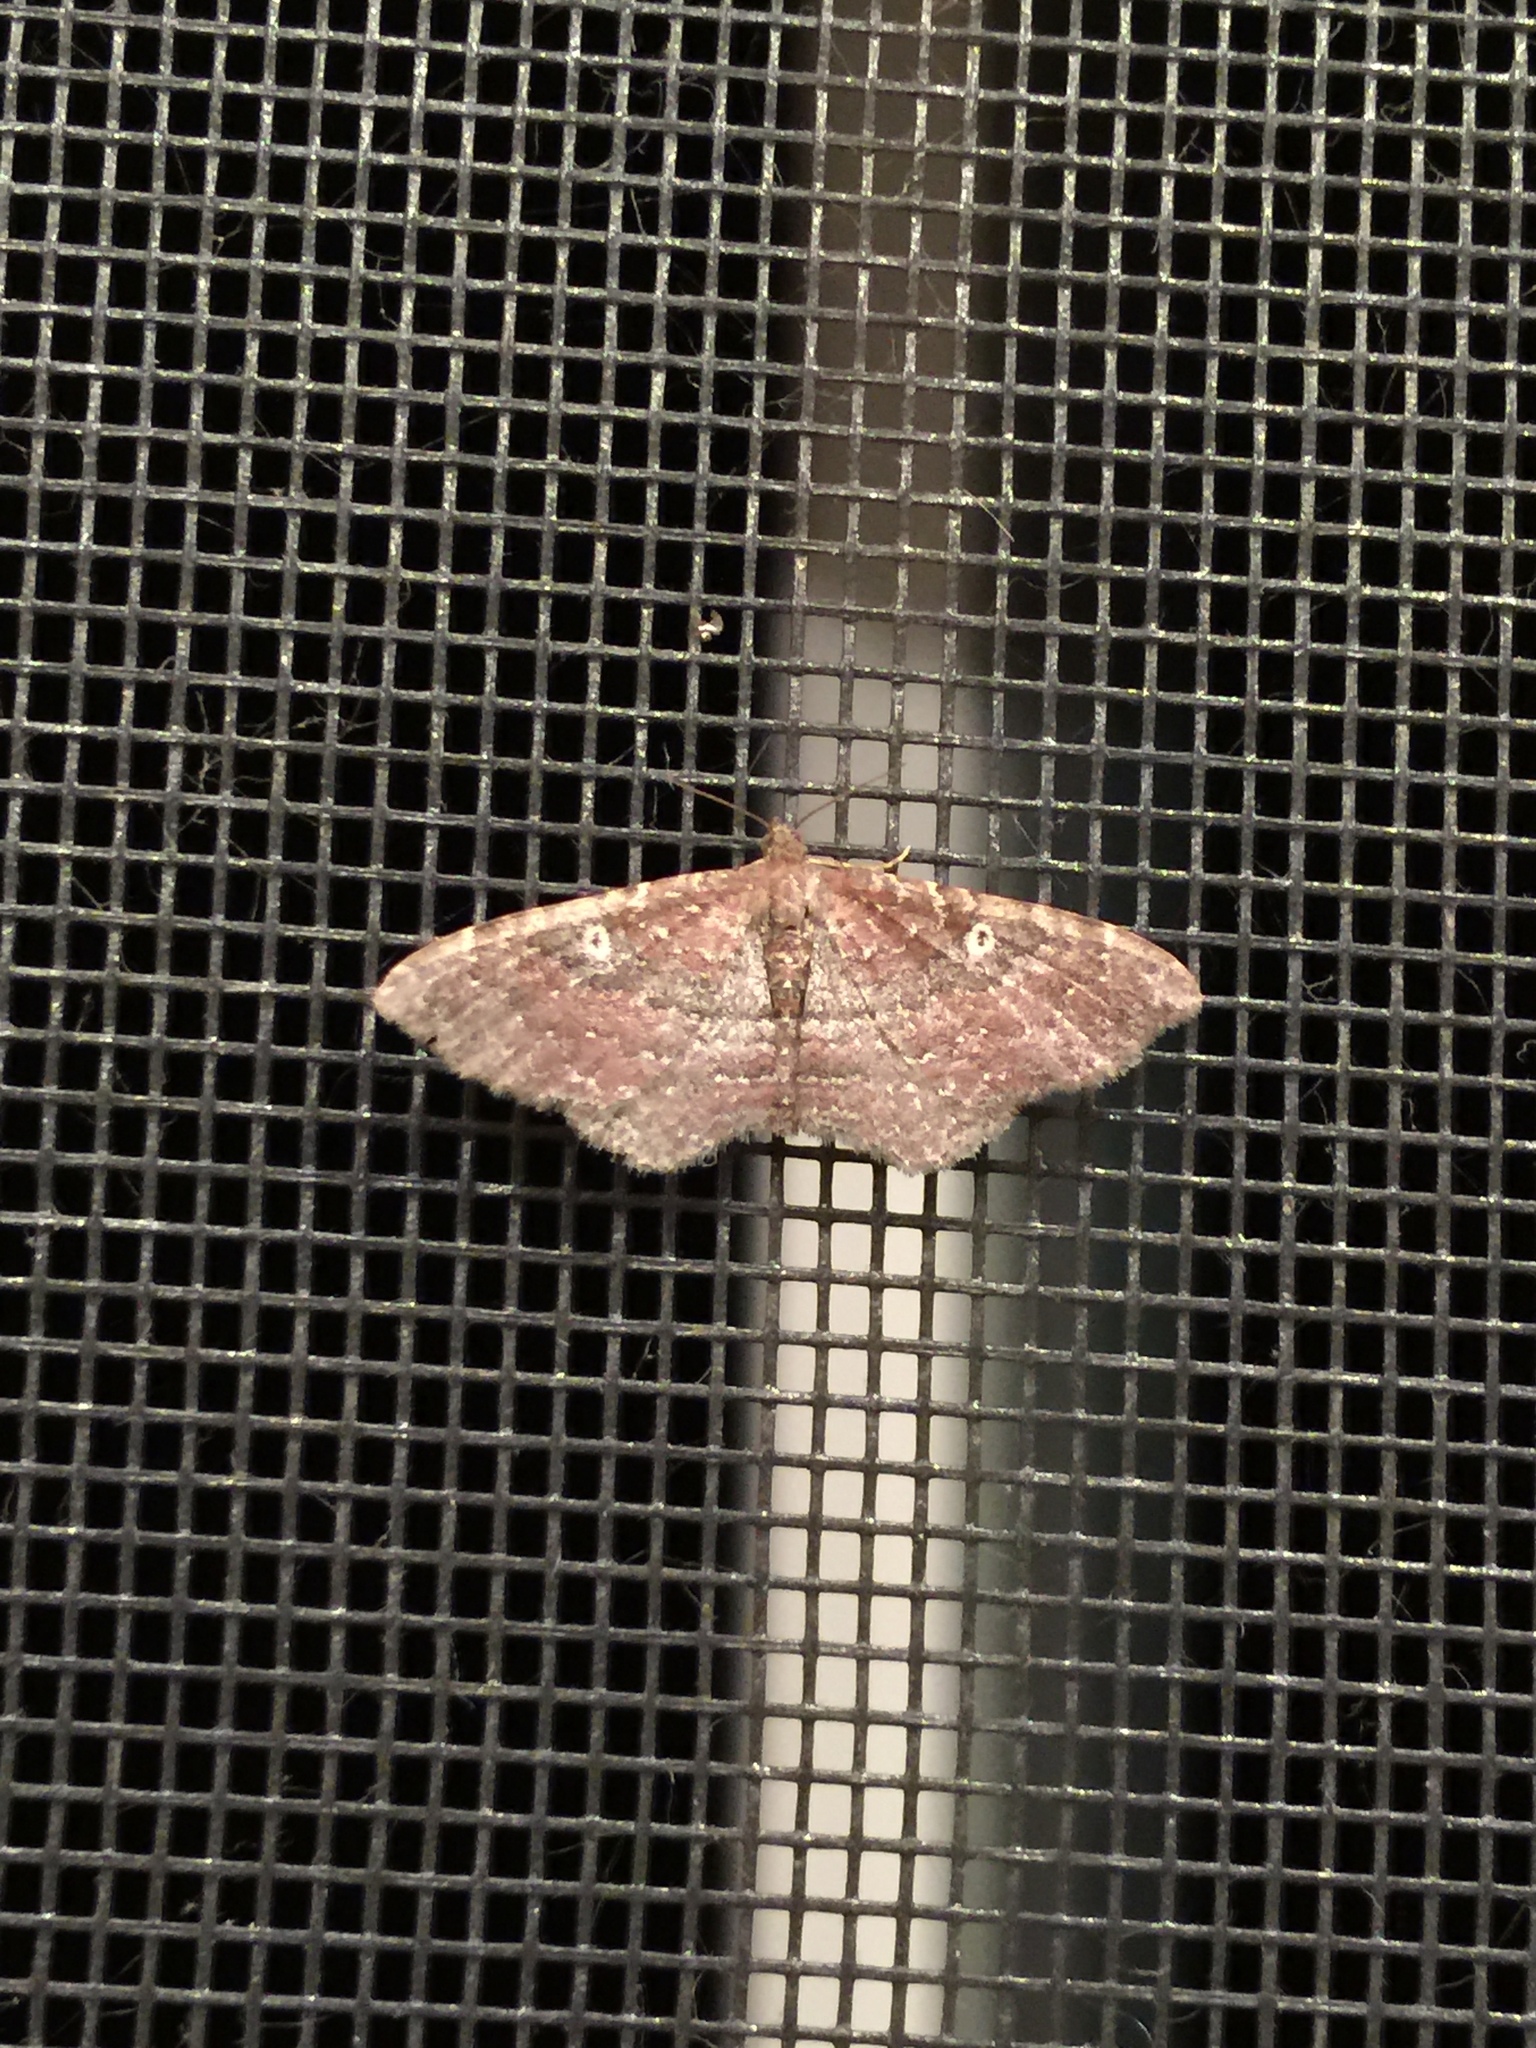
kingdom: Animalia
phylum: Arthropoda
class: Insecta
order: Lepidoptera
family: Geometridae
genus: Orthonama
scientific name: Orthonama obstipata
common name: The gem
